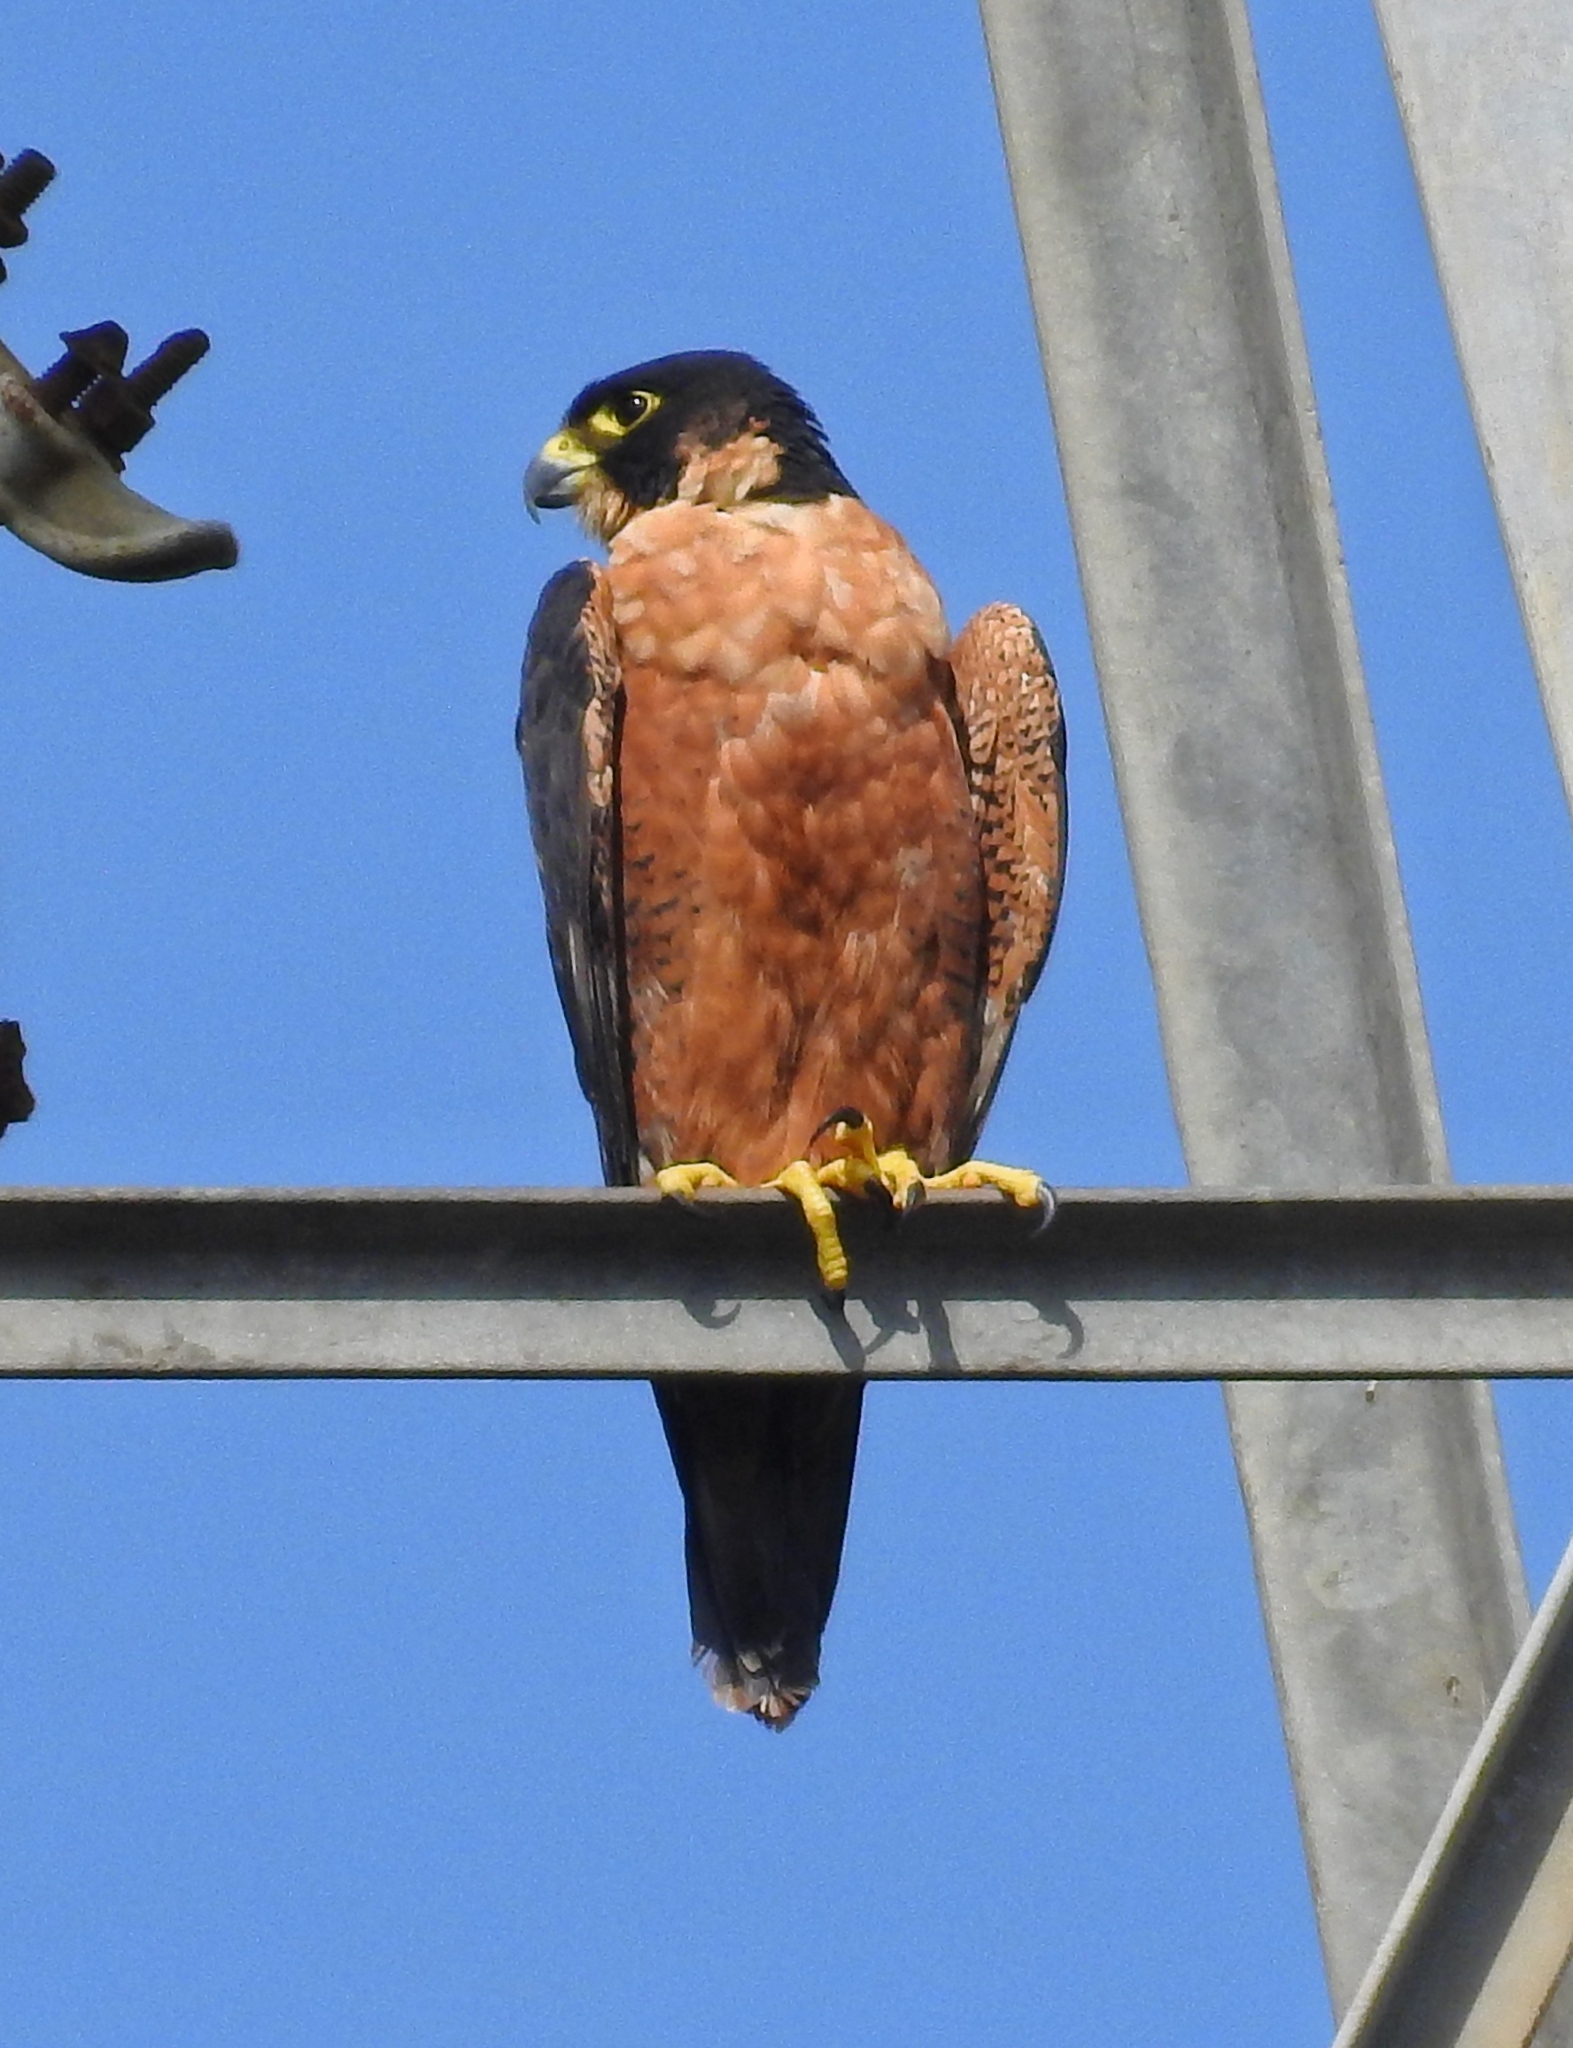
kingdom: Animalia
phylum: Chordata
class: Aves
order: Falconiformes
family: Falconidae
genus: Falco
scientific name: Falco peregrinus
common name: Peregrine falcon
